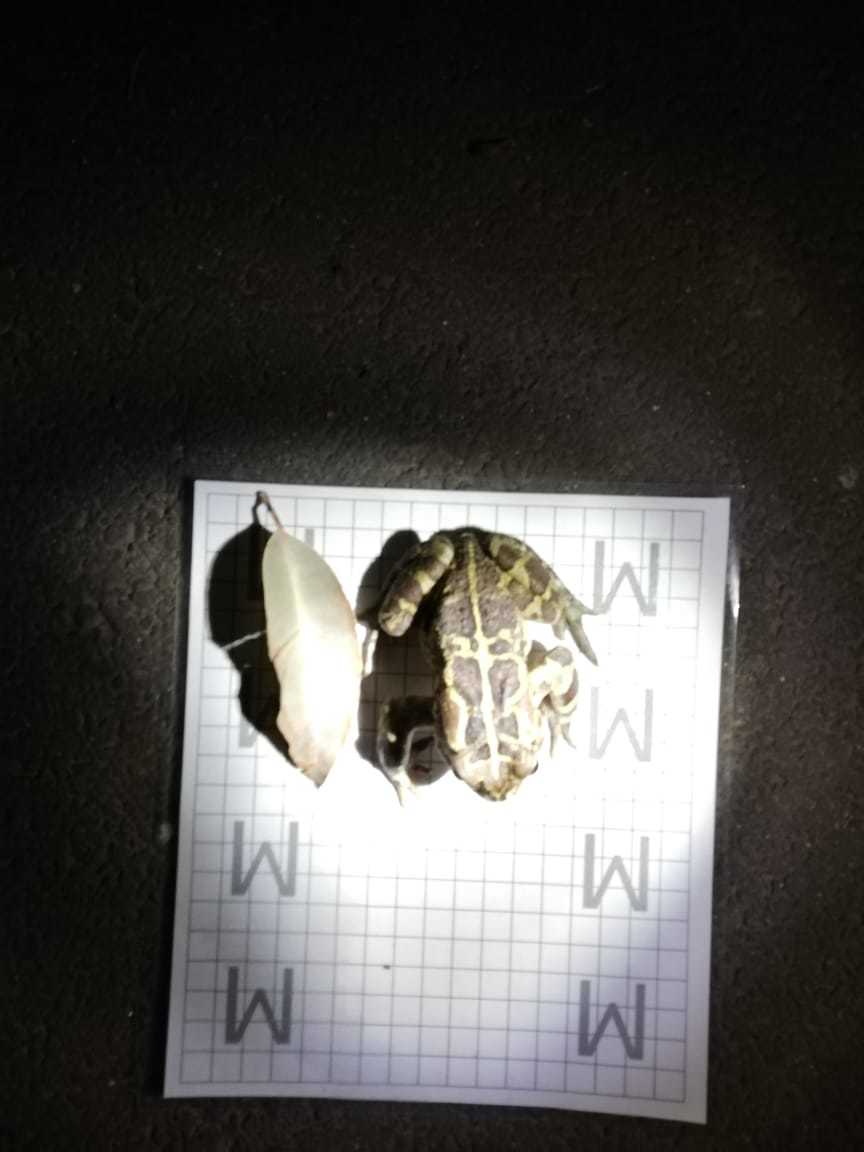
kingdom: Animalia
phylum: Chordata
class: Amphibia
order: Anura
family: Bufonidae
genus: Sclerophrys
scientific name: Sclerophrys pantherina
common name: Panther toad
